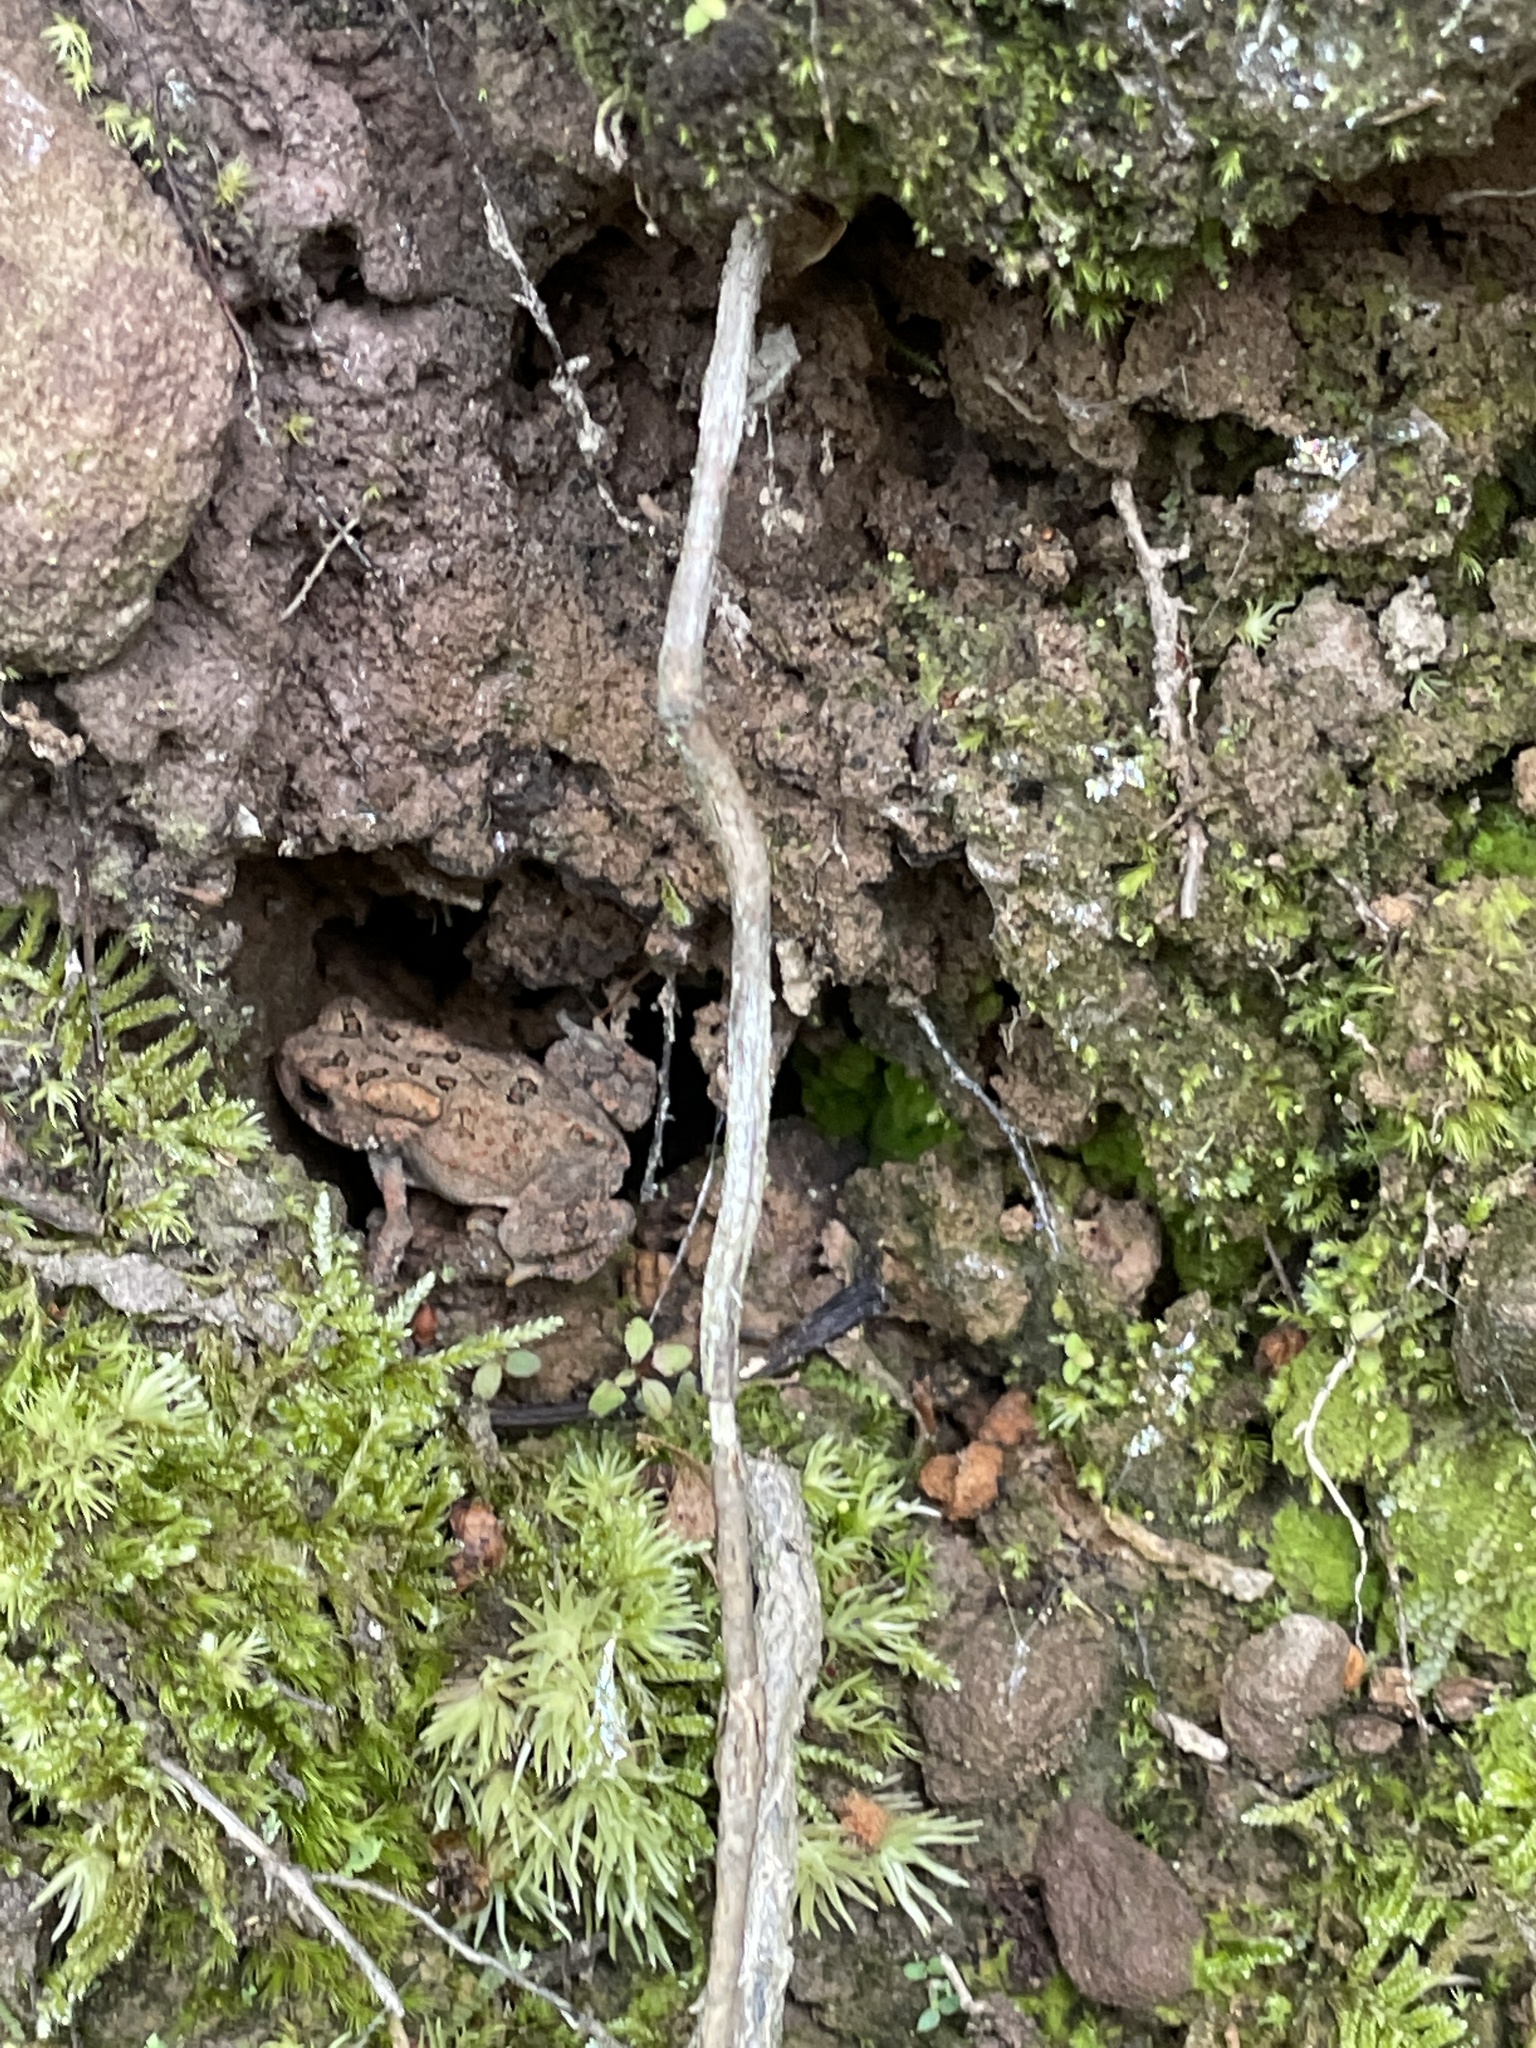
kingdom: Animalia
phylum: Chordata
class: Amphibia
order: Anura
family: Bufonidae
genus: Anaxyrus
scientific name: Anaxyrus americanus
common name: American toad
